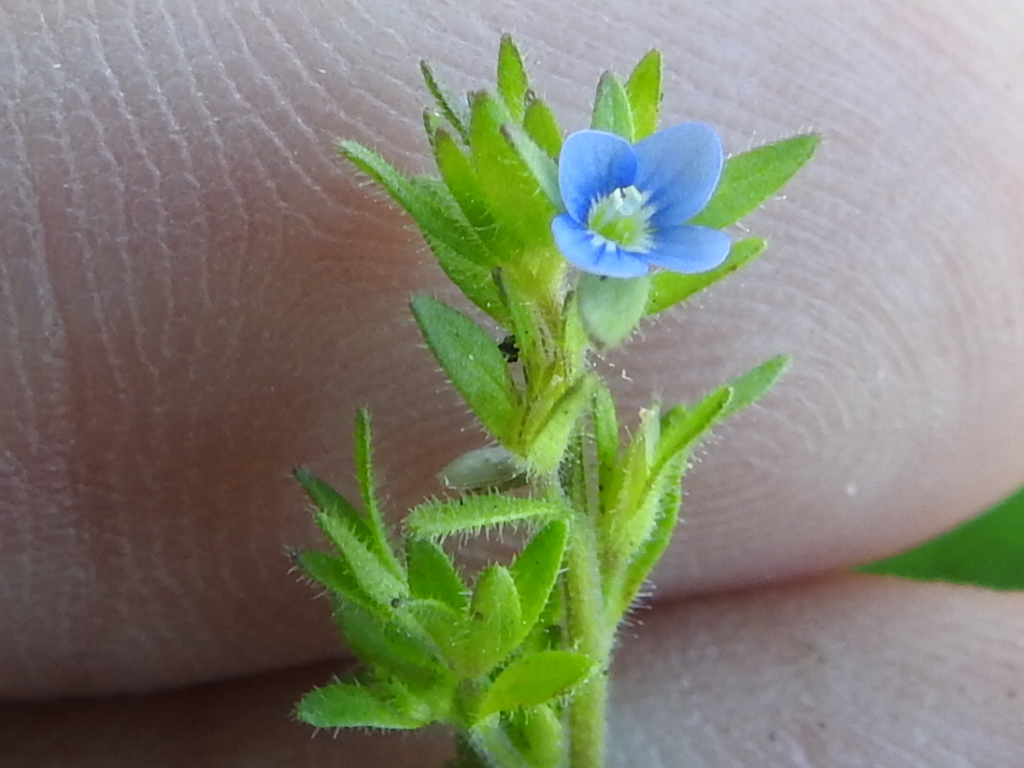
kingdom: Plantae
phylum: Tracheophyta
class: Magnoliopsida
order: Lamiales
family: Plantaginaceae
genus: Veronica
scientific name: Veronica arvensis
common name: Corn speedwell
